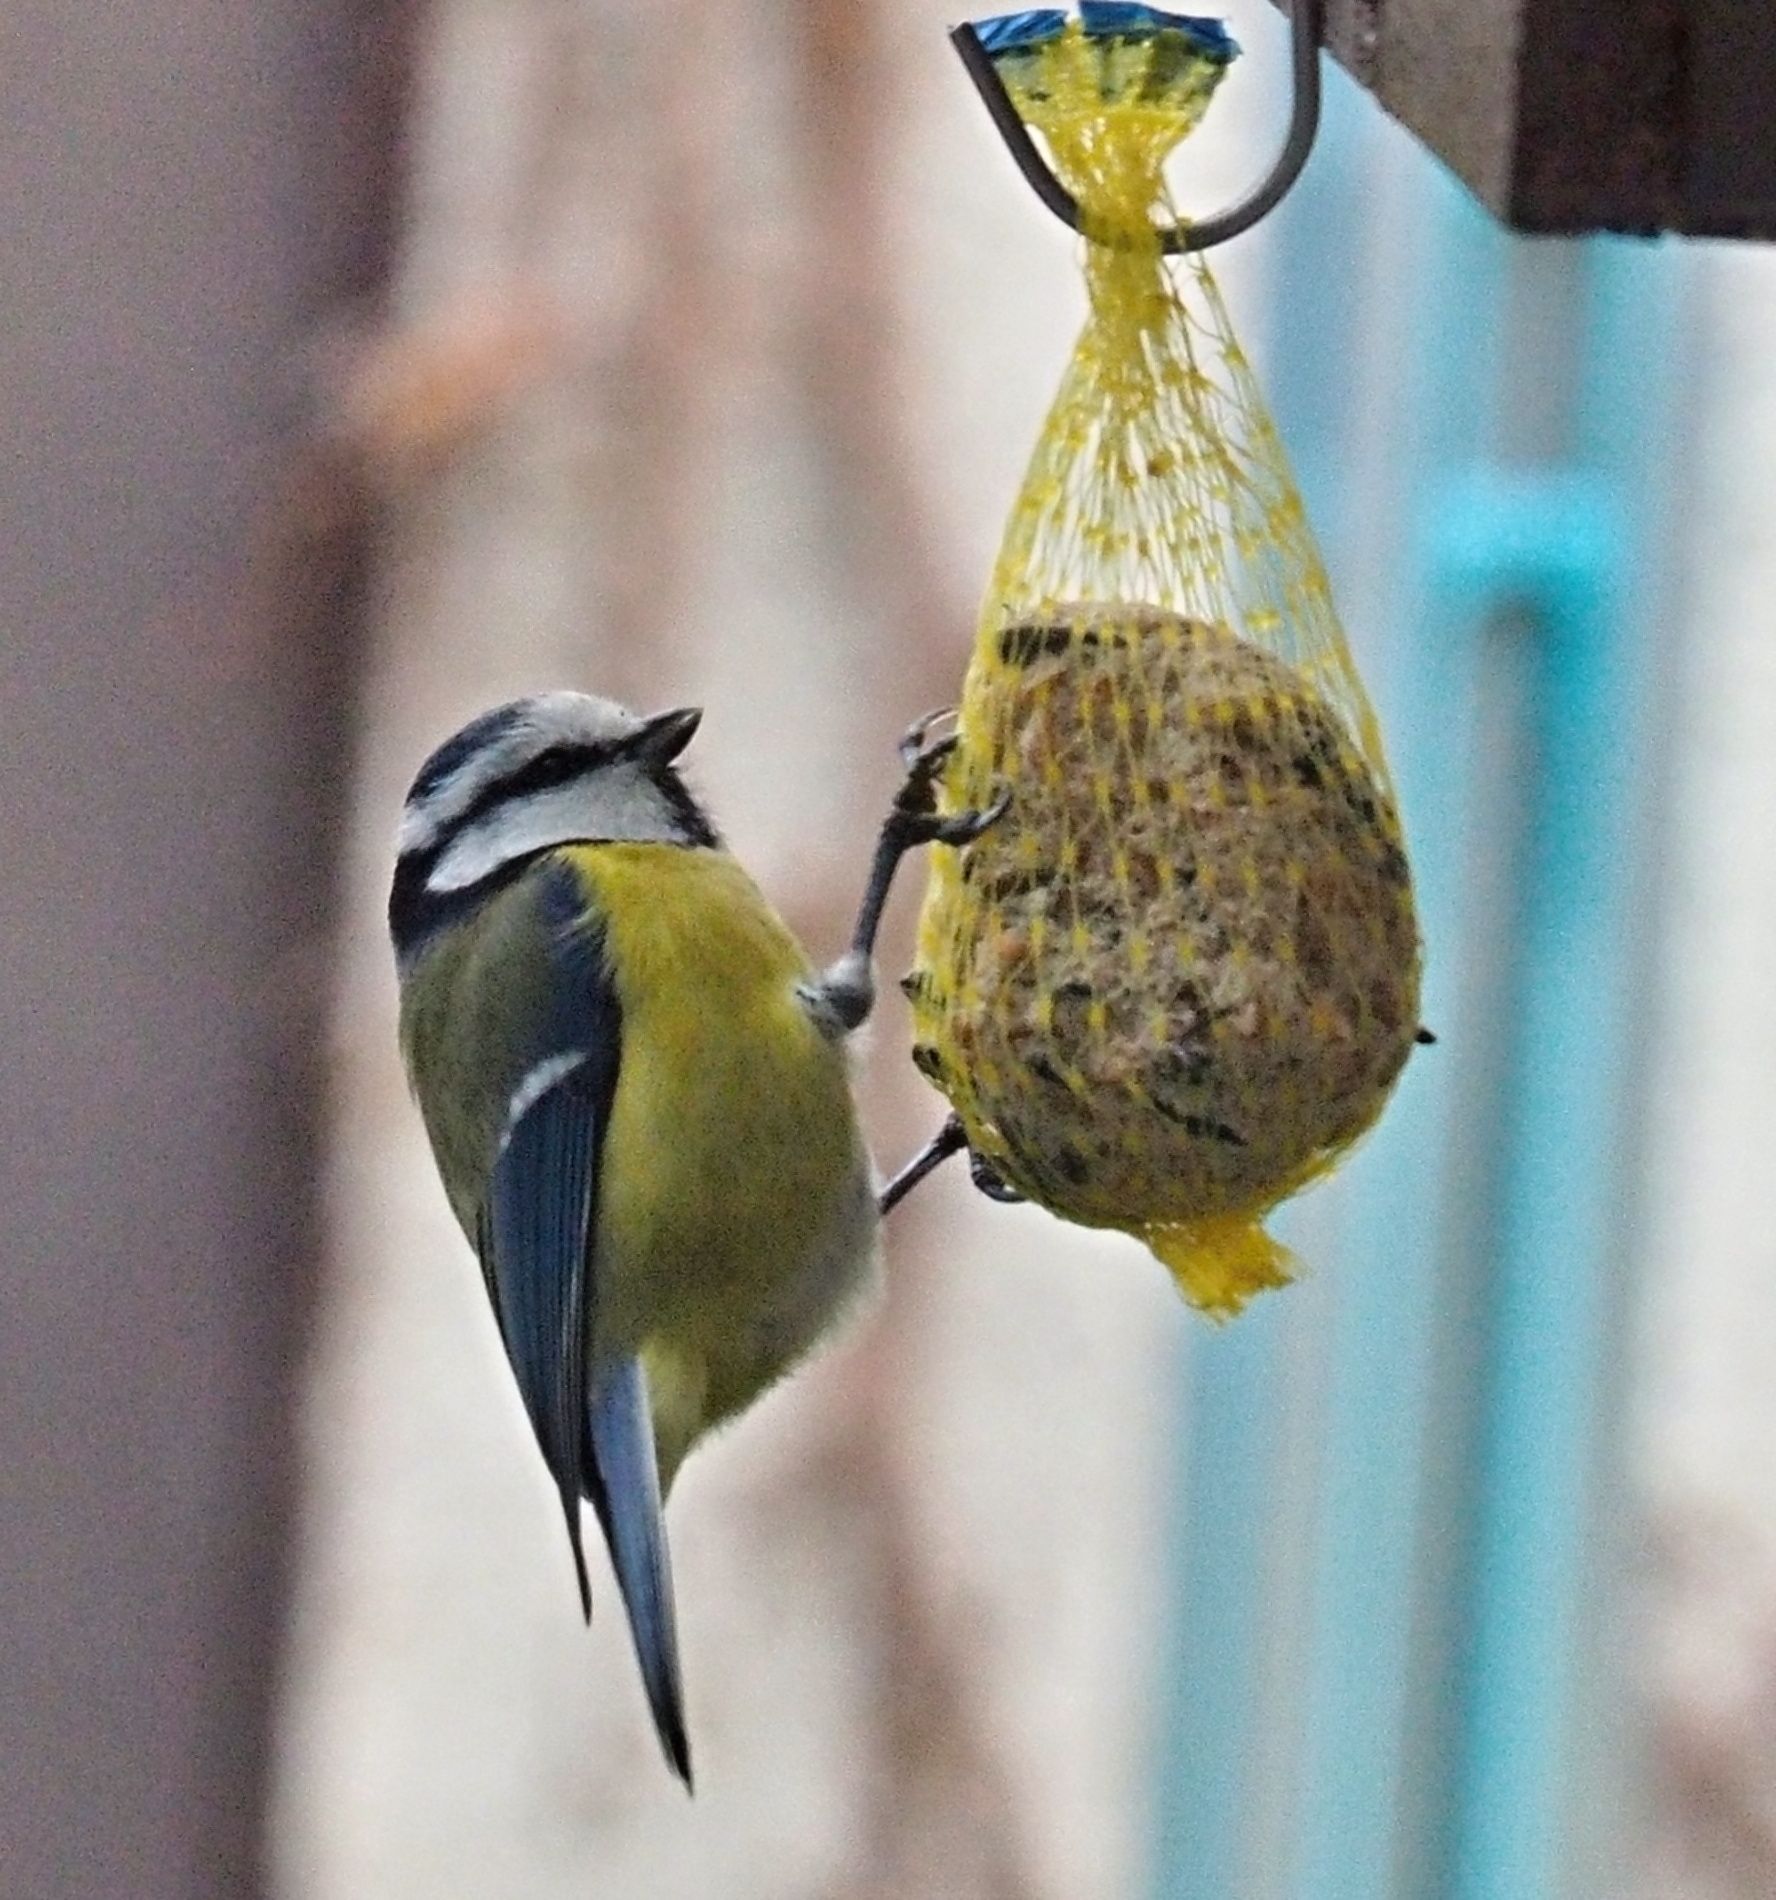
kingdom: Animalia
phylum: Chordata
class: Aves
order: Passeriformes
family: Paridae
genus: Cyanistes
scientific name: Cyanistes caeruleus
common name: Eurasian blue tit
